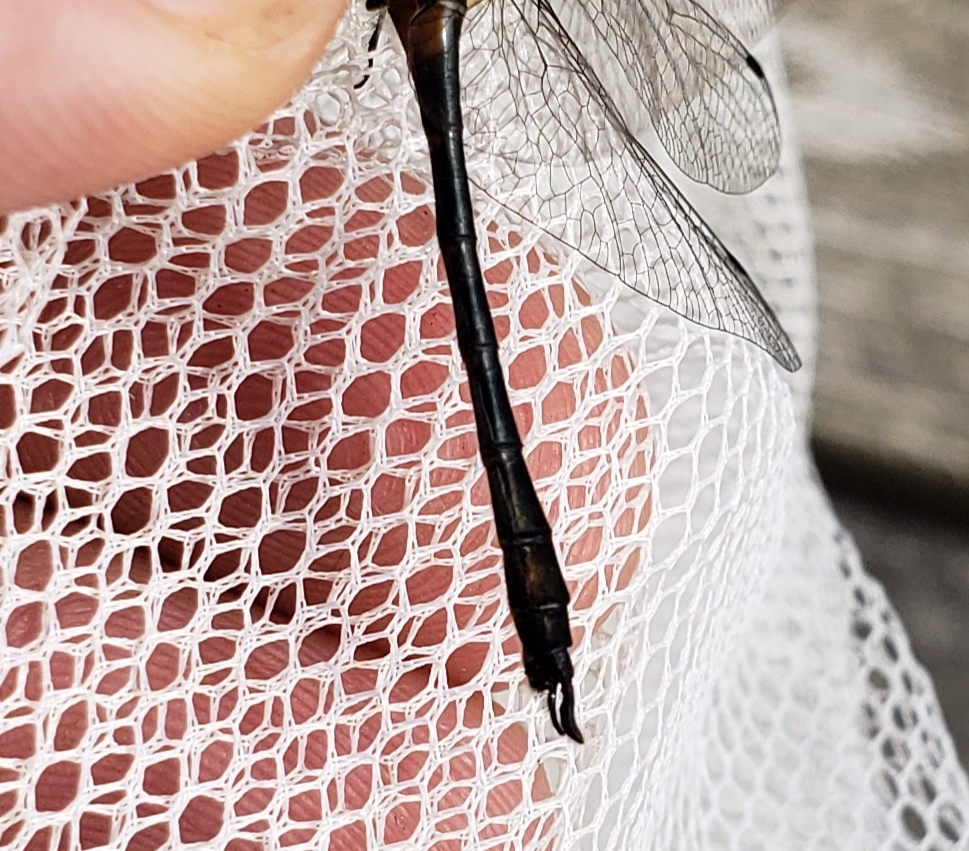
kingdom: Animalia
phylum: Arthropoda
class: Insecta
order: Odonata
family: Corduliidae
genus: Dorocordulia
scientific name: Dorocordulia lepida
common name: Petite emerald
